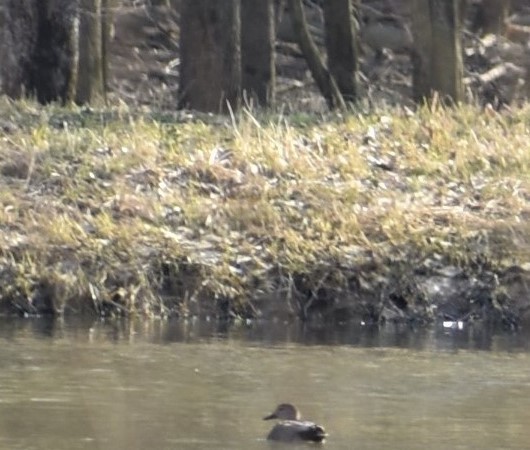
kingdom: Animalia
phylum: Chordata
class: Aves
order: Anseriformes
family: Anatidae
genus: Mareca
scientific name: Mareca strepera
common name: Gadwall
